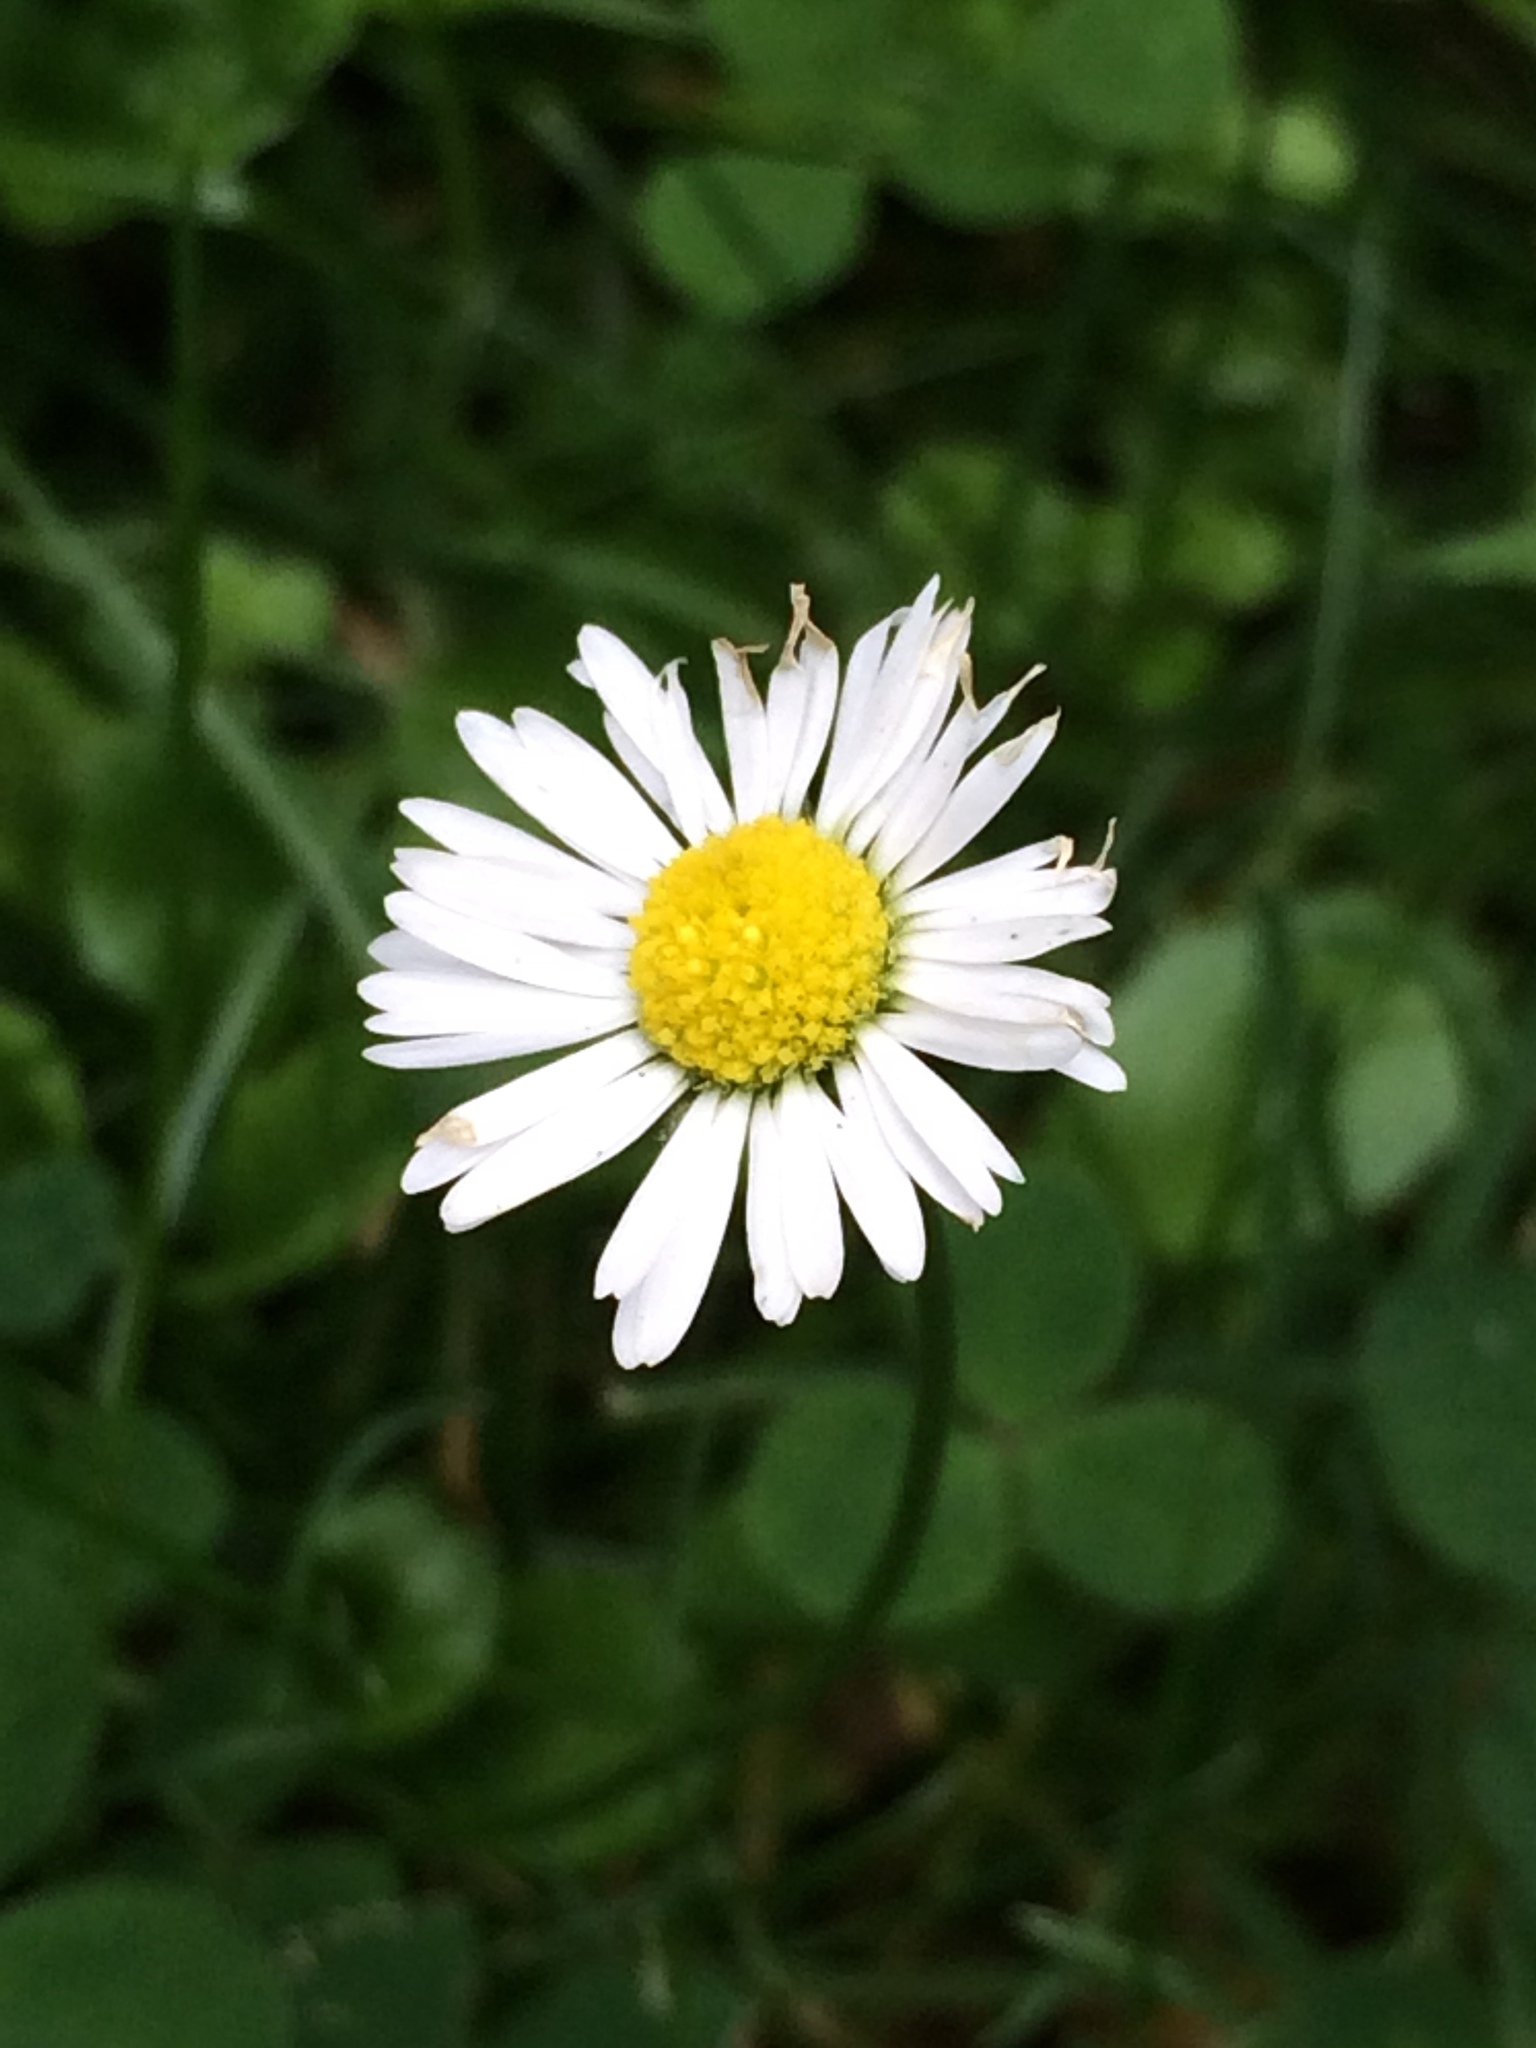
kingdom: Plantae
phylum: Tracheophyta
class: Magnoliopsida
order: Asterales
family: Asteraceae
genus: Bellis
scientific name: Bellis perennis
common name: Lawndaisy
